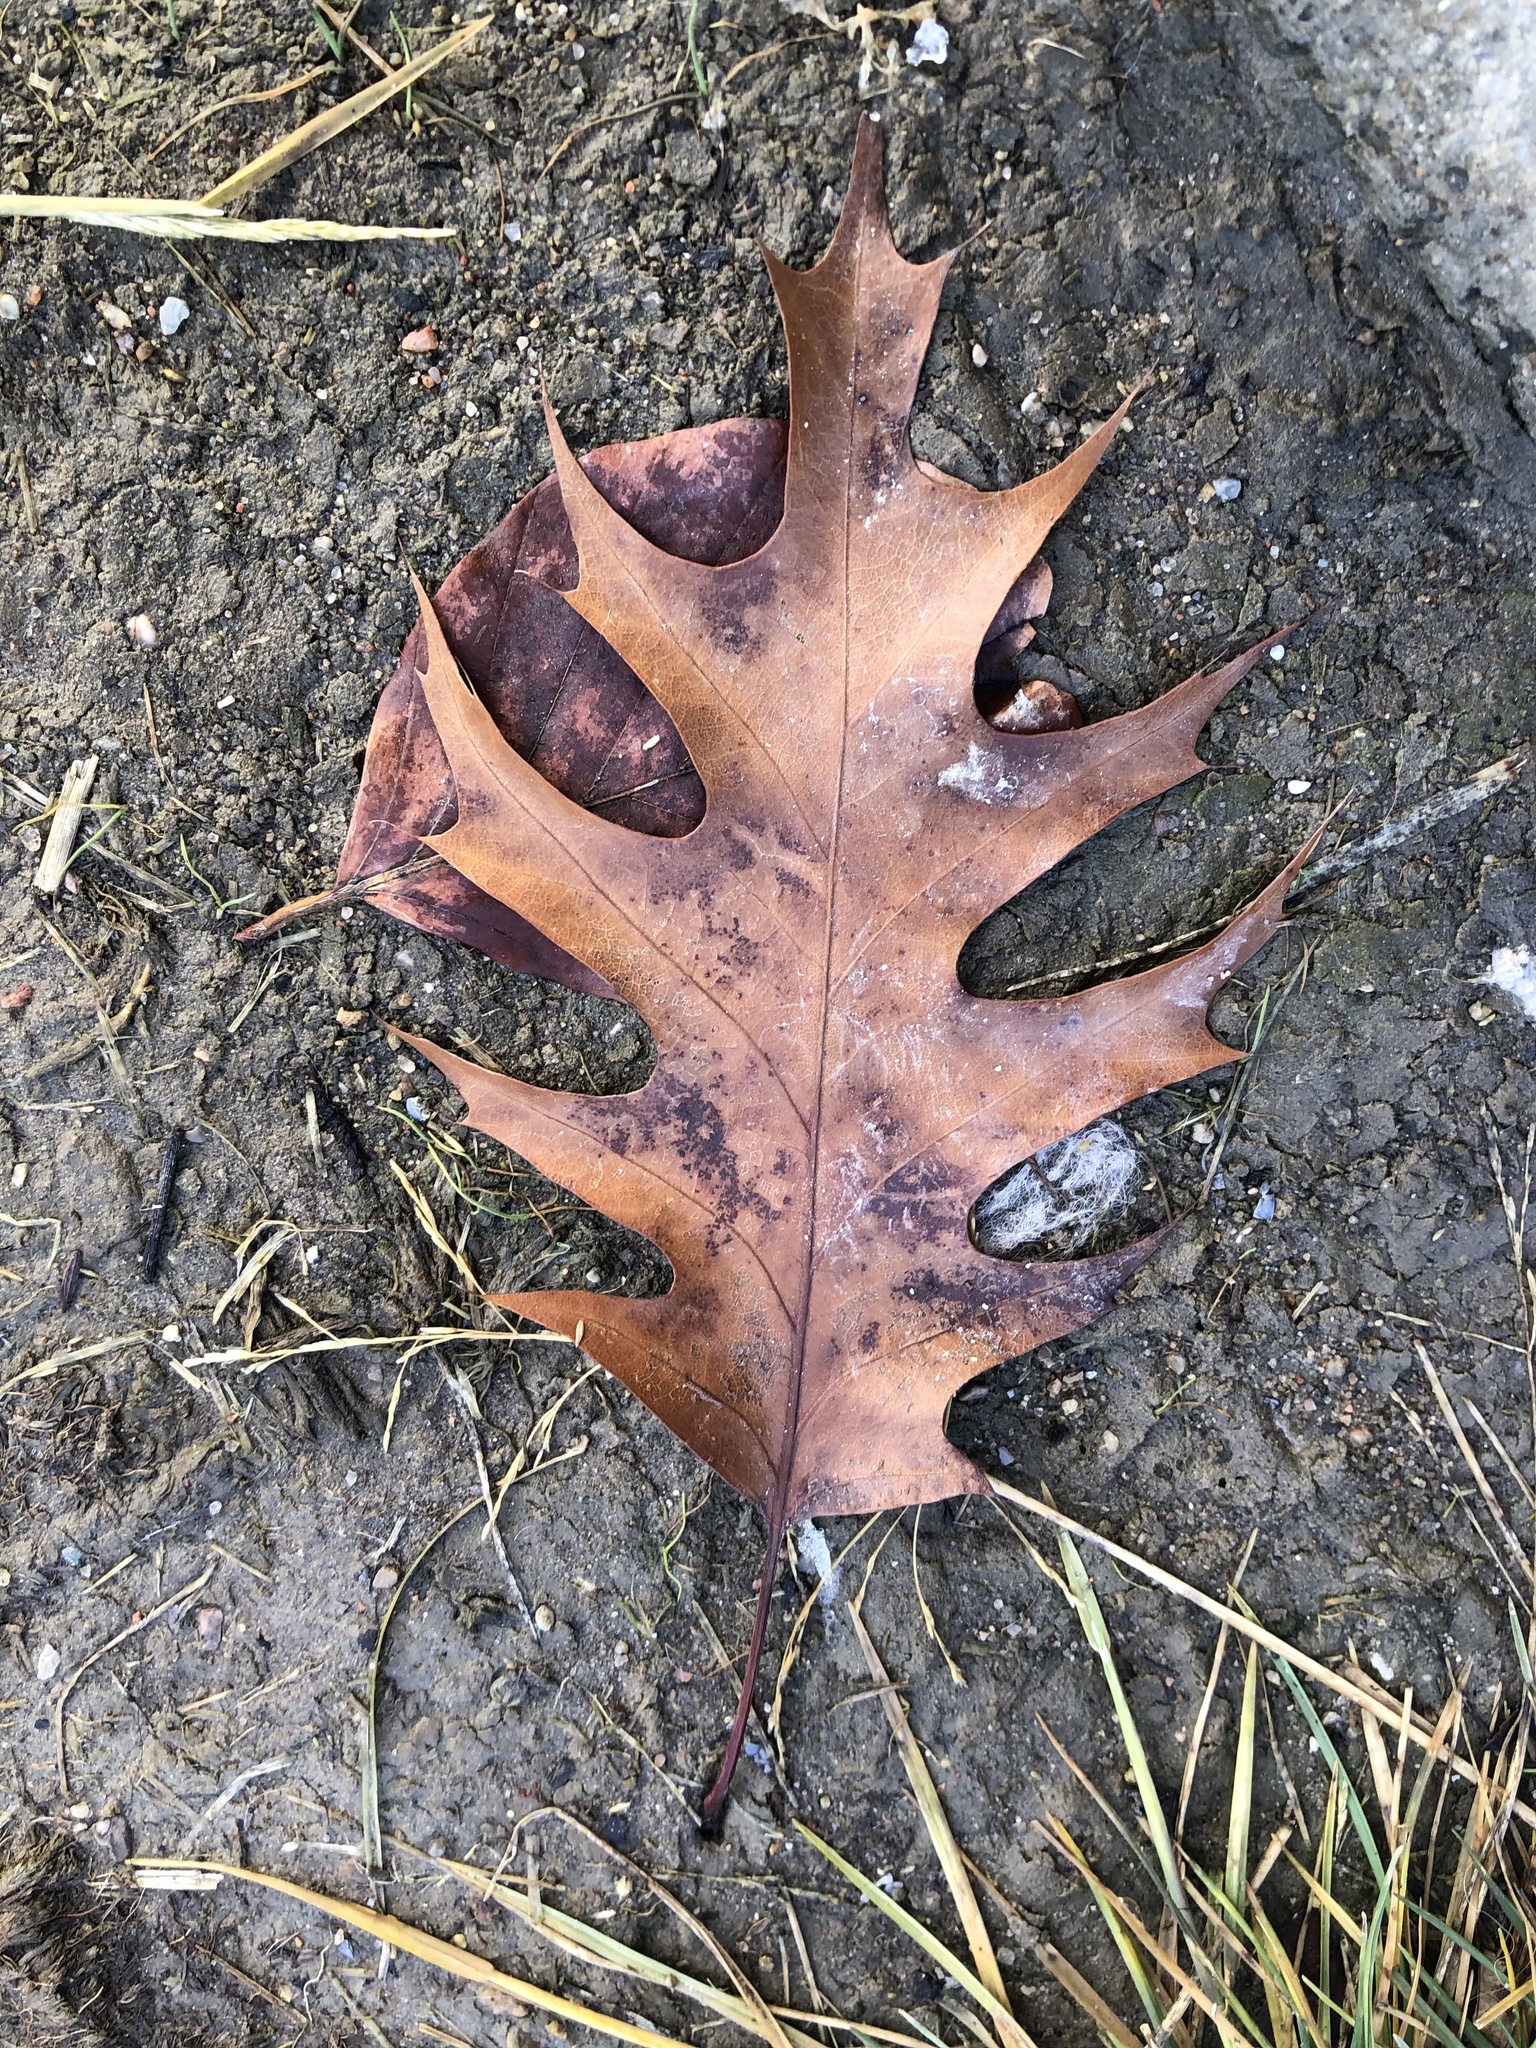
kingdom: Plantae
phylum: Tracheophyta
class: Magnoliopsida
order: Fagales
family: Fagaceae
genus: Quercus
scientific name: Quercus rubra
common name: Red oak
